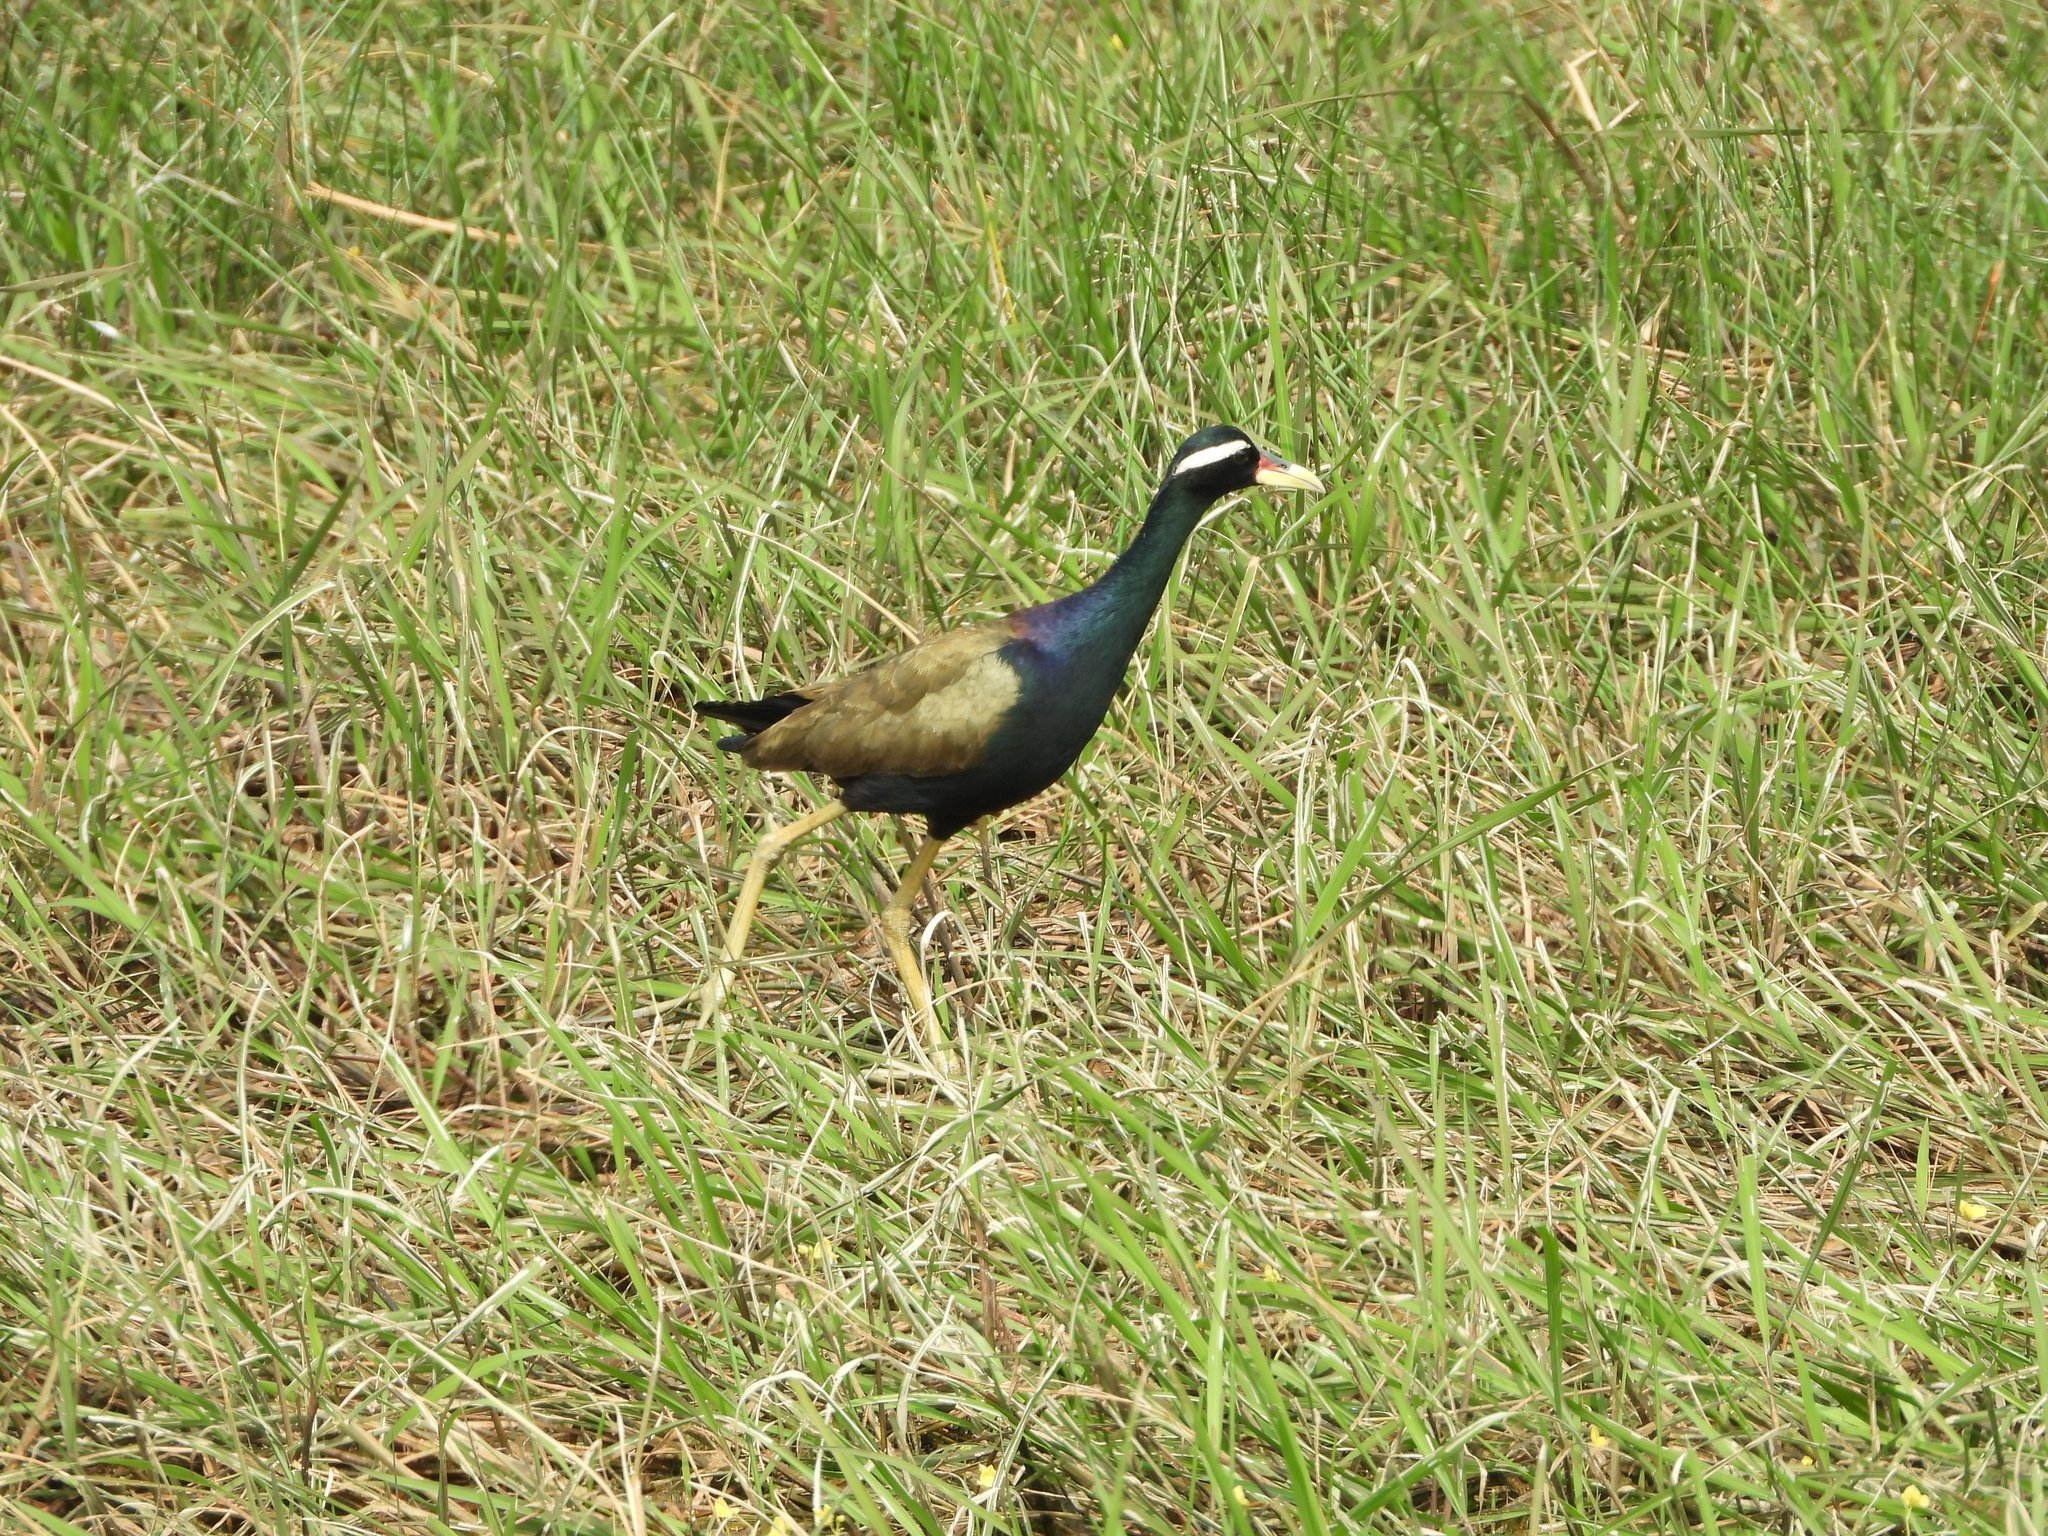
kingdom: Animalia
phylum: Chordata
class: Aves
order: Charadriiformes
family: Jacanidae
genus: Metopidius
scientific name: Metopidius indicus
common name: Bronze-winged jacana
